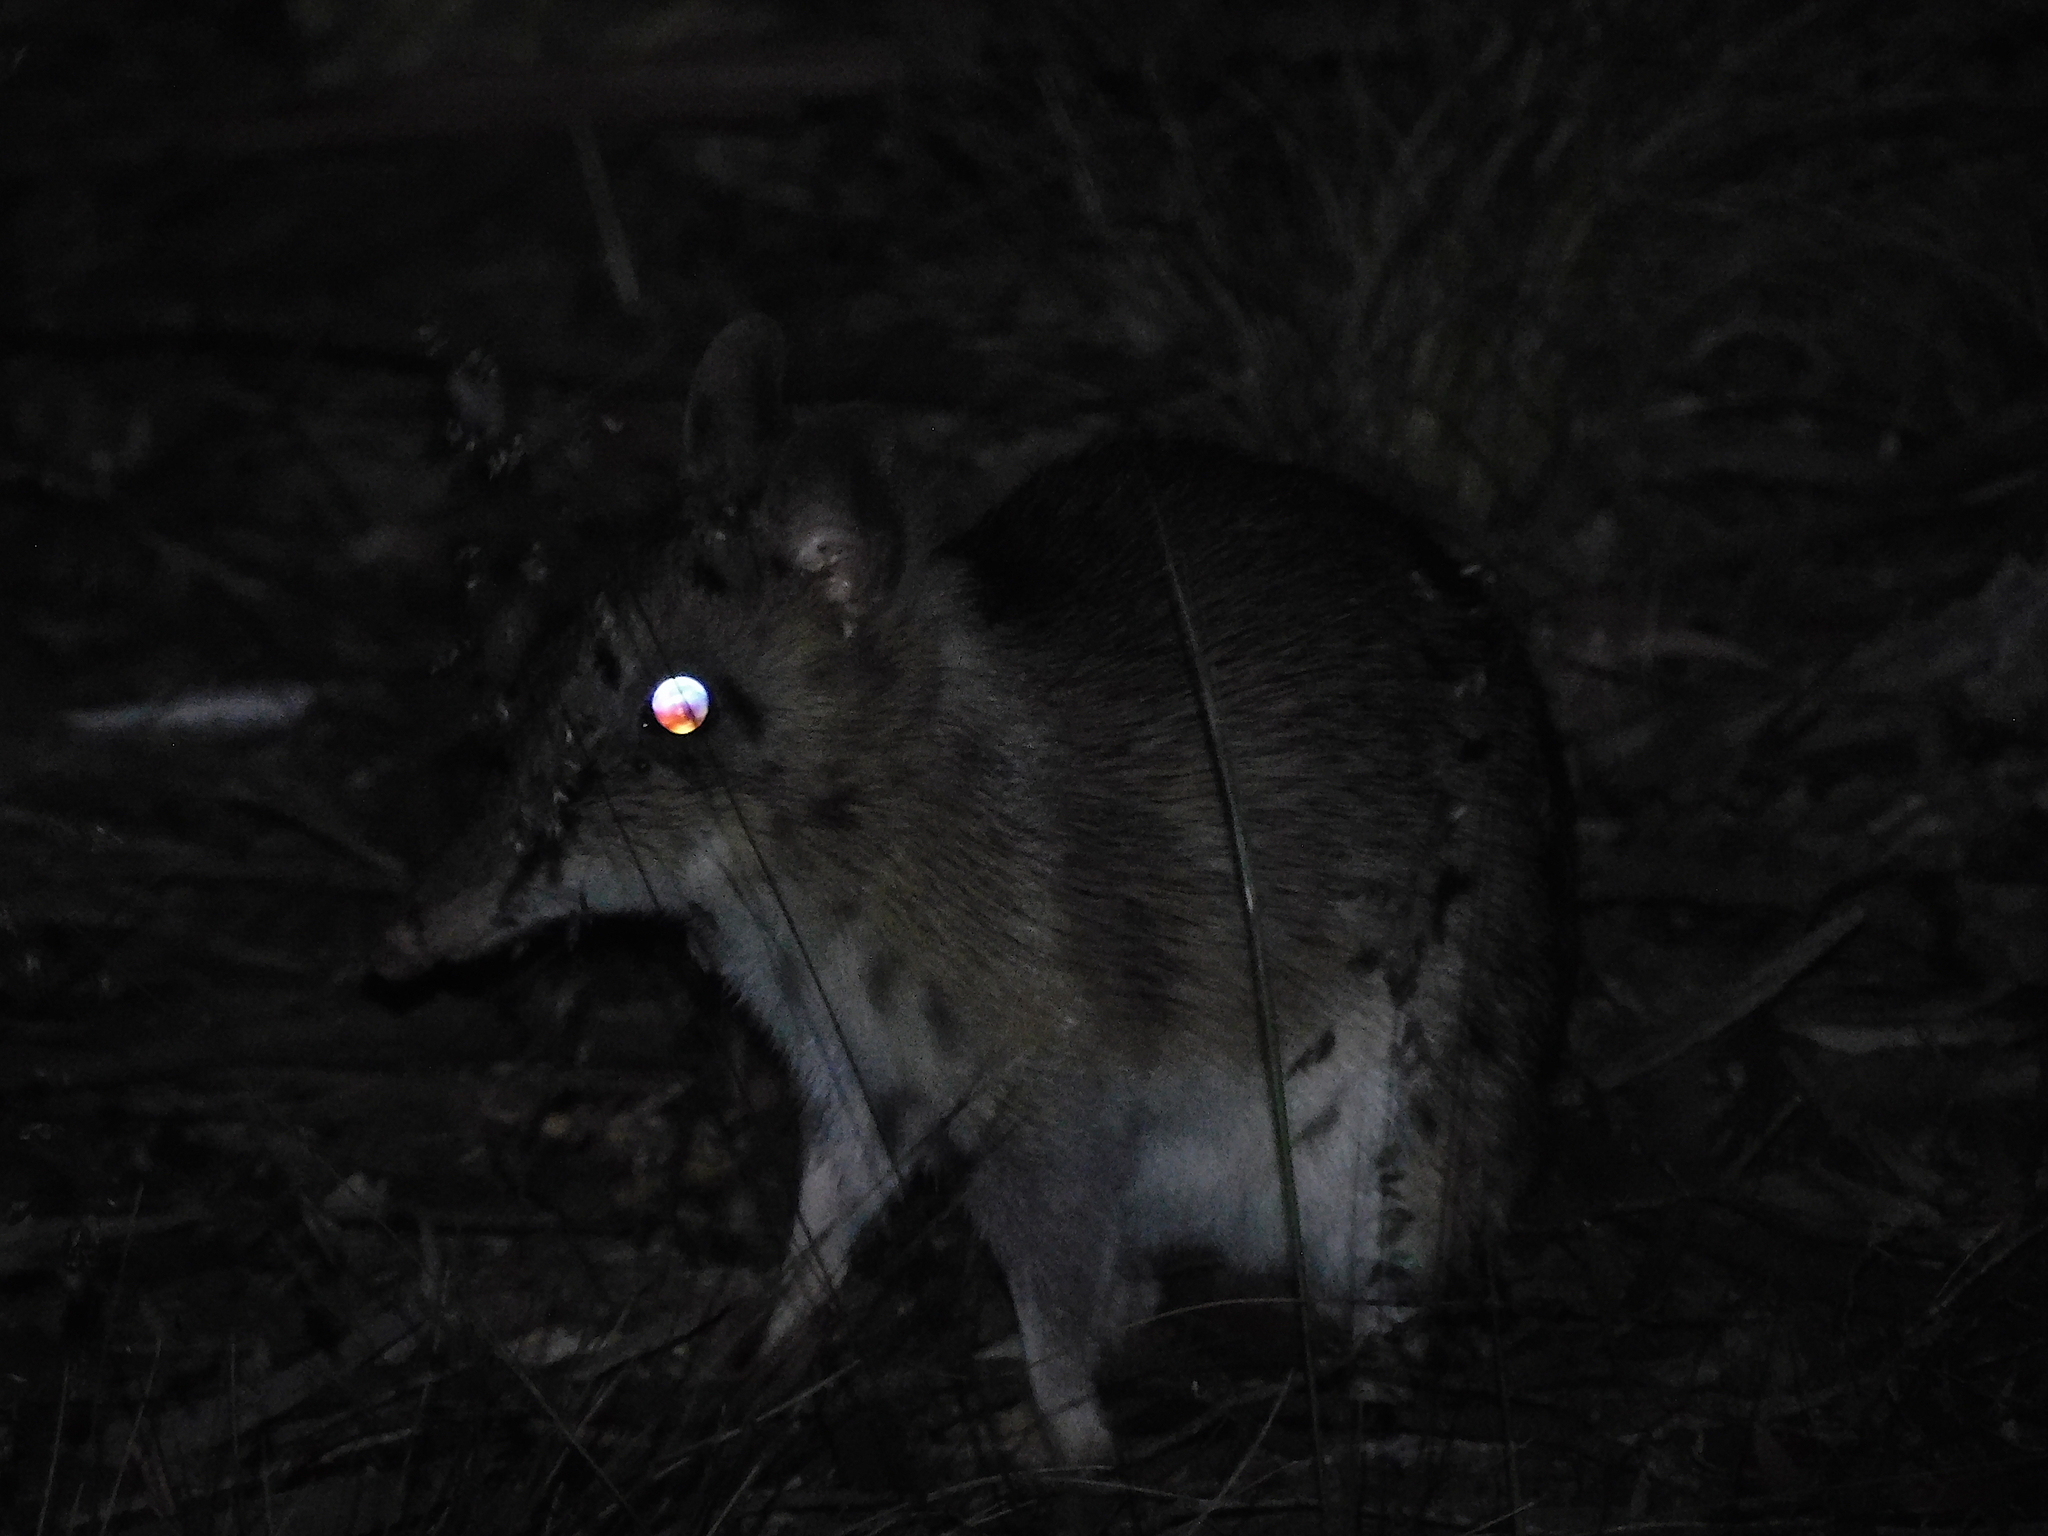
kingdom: Animalia
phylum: Chordata
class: Mammalia
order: Peramelemorphia
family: Peramelidae
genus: Perameles
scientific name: Perameles gunnii
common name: Eastern barred bandicoot
